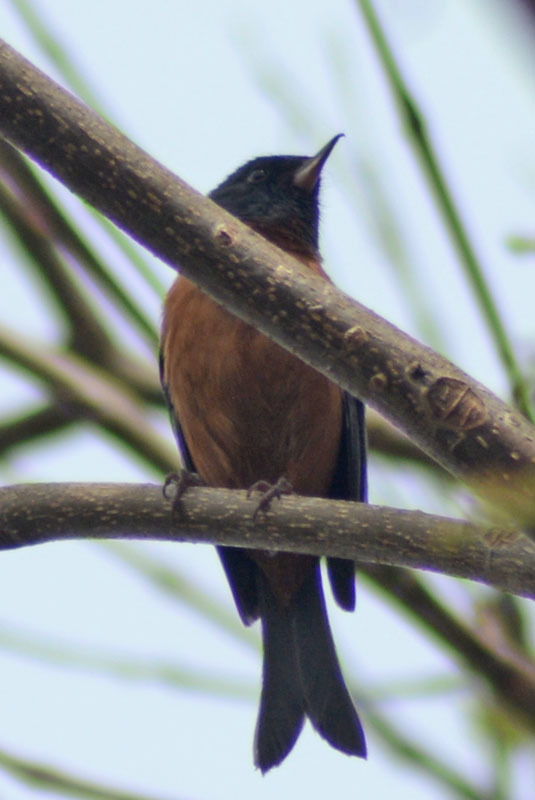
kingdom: Animalia
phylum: Chordata
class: Aves
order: Passeriformes
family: Thraupidae
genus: Diglossa
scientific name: Diglossa baritula
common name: Cinnamon-bellied flowerpiercer
